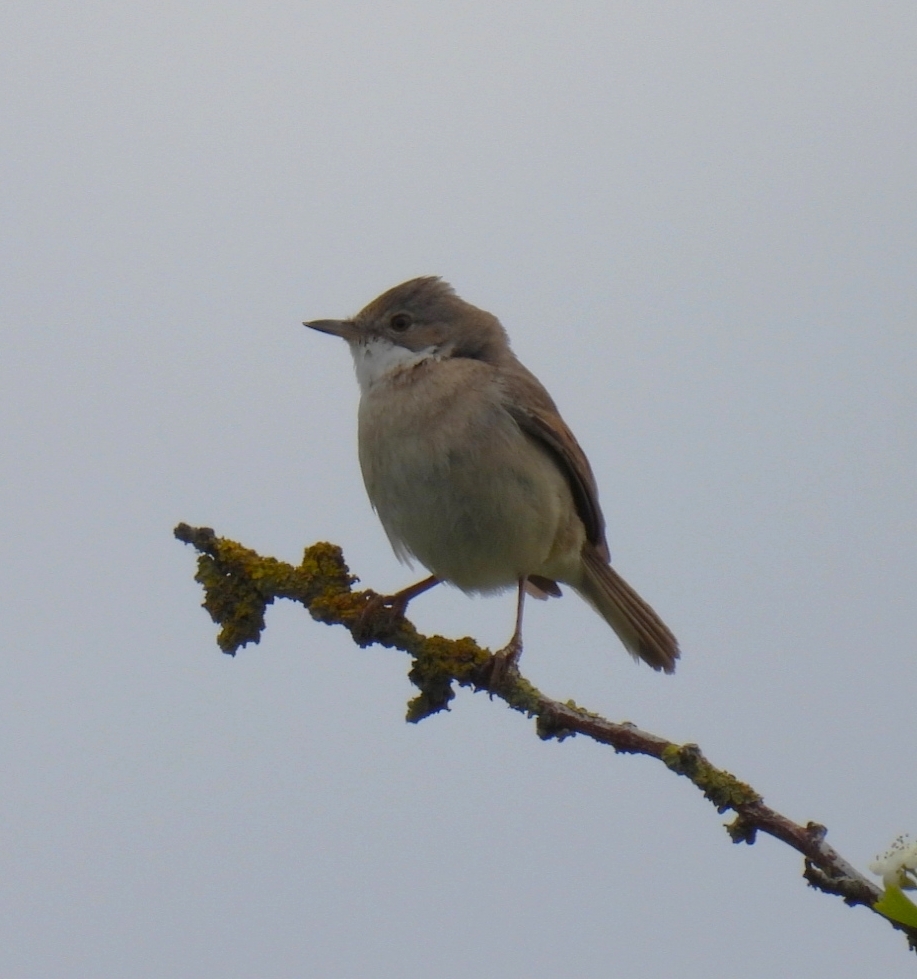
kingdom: Animalia
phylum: Chordata
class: Aves
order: Passeriformes
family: Sylviidae
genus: Sylvia
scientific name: Sylvia communis
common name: Common whitethroat
